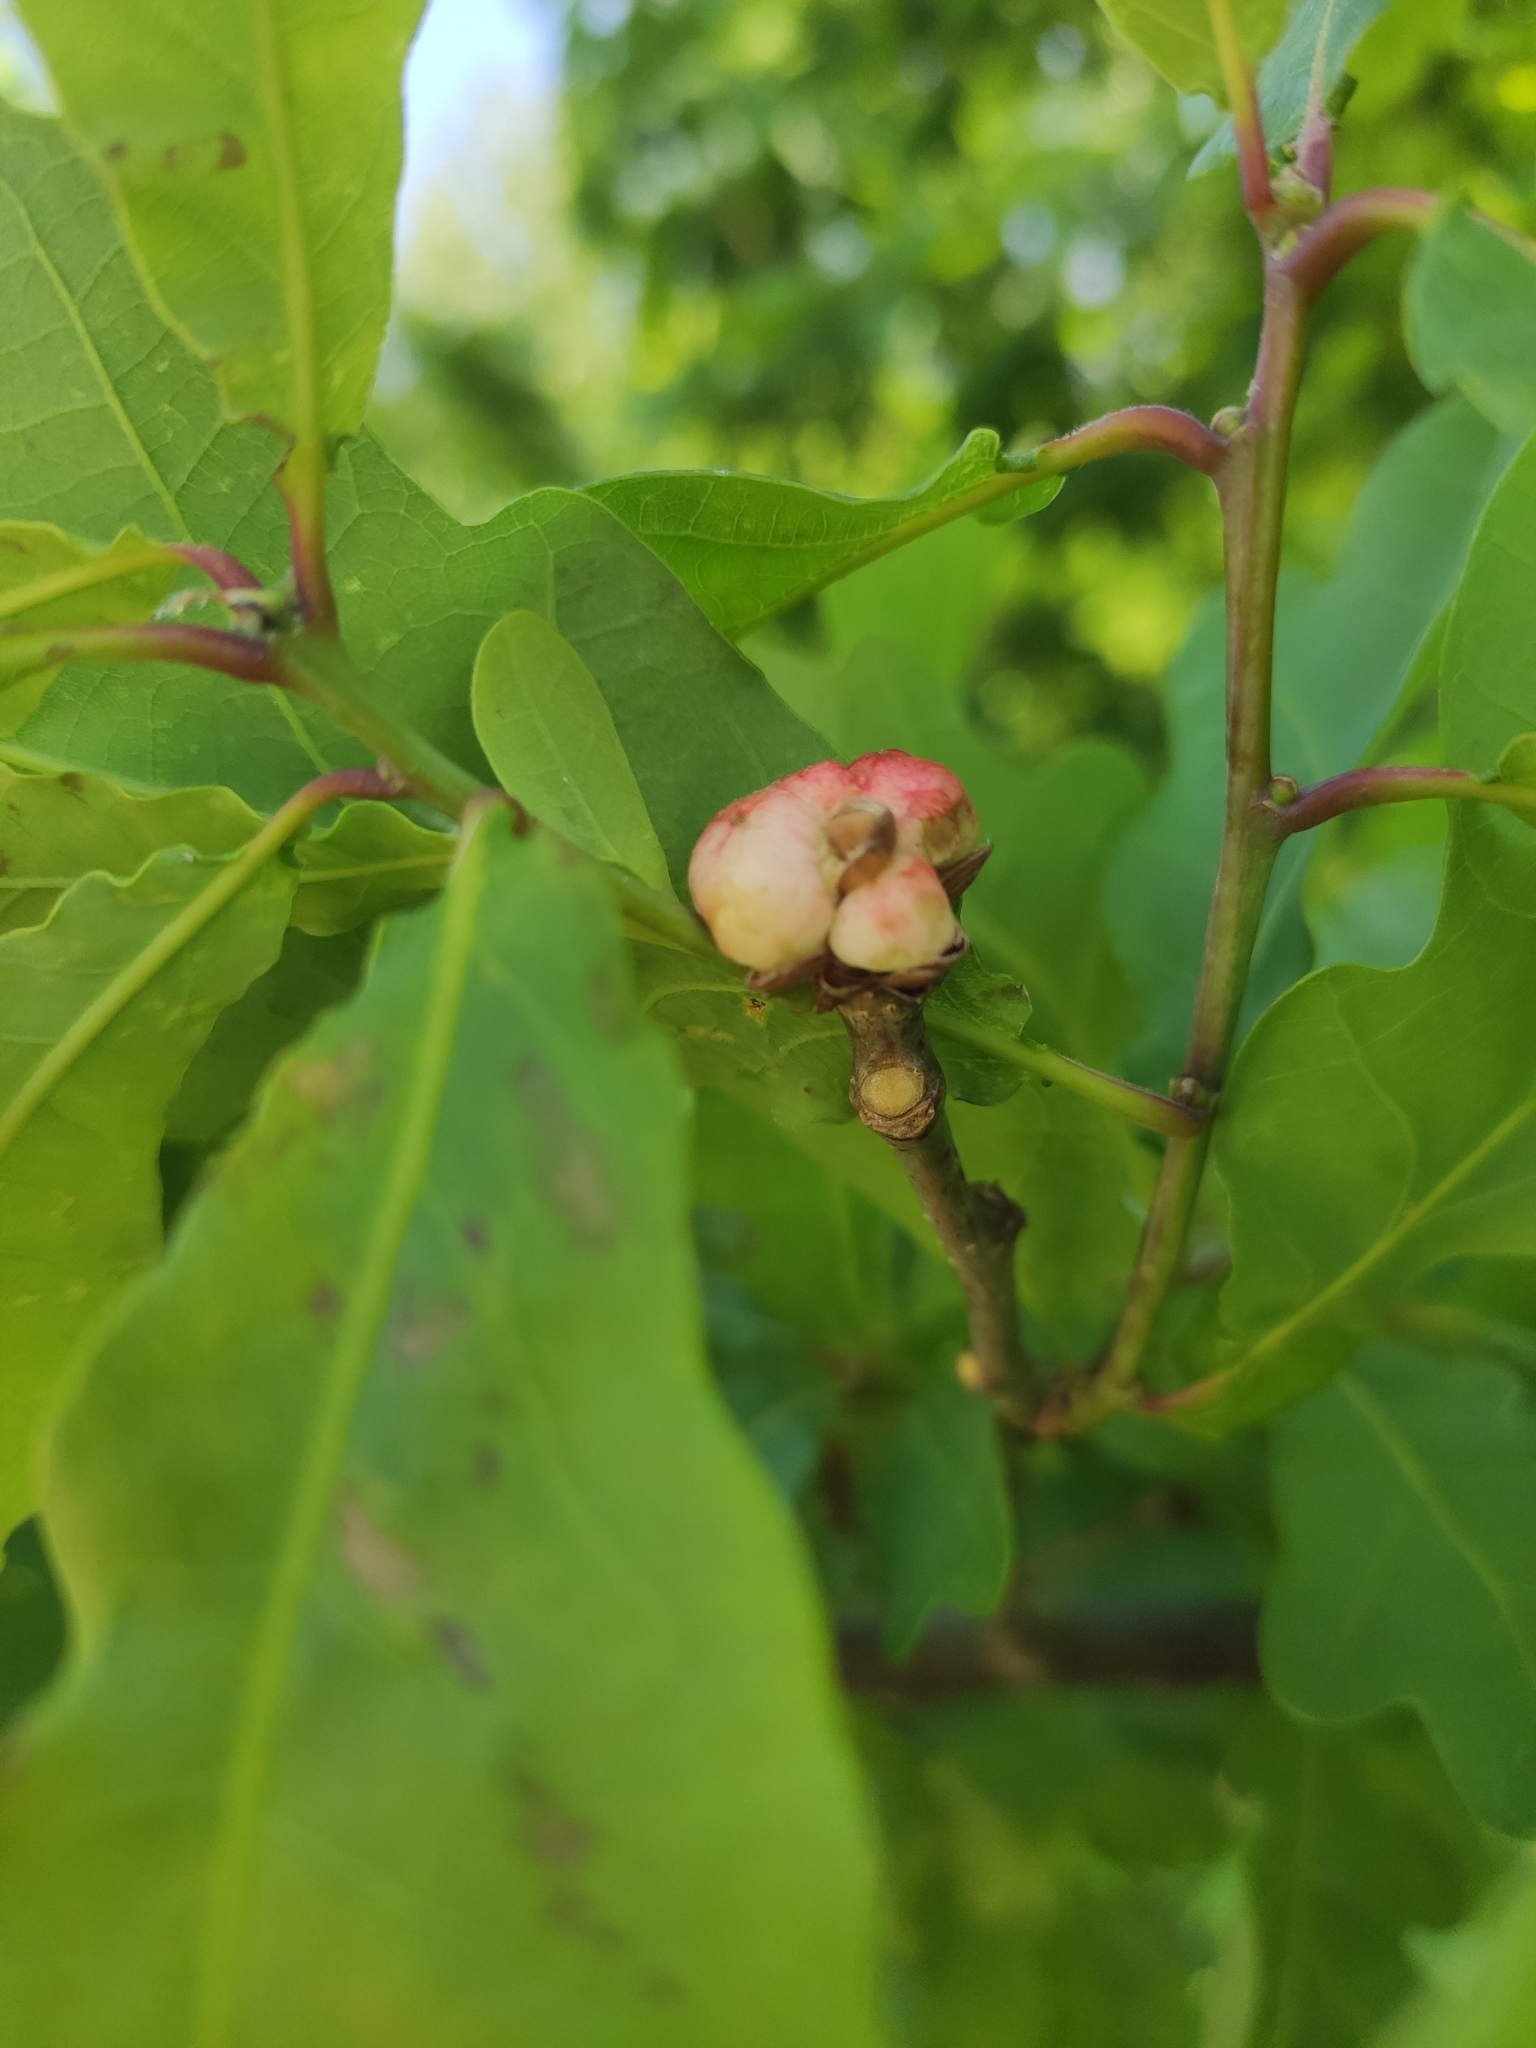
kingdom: Animalia
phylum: Arthropoda
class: Insecta
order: Hymenoptera
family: Cynipidae
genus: Biorhiza
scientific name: Biorhiza pallida
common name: Oak apple
